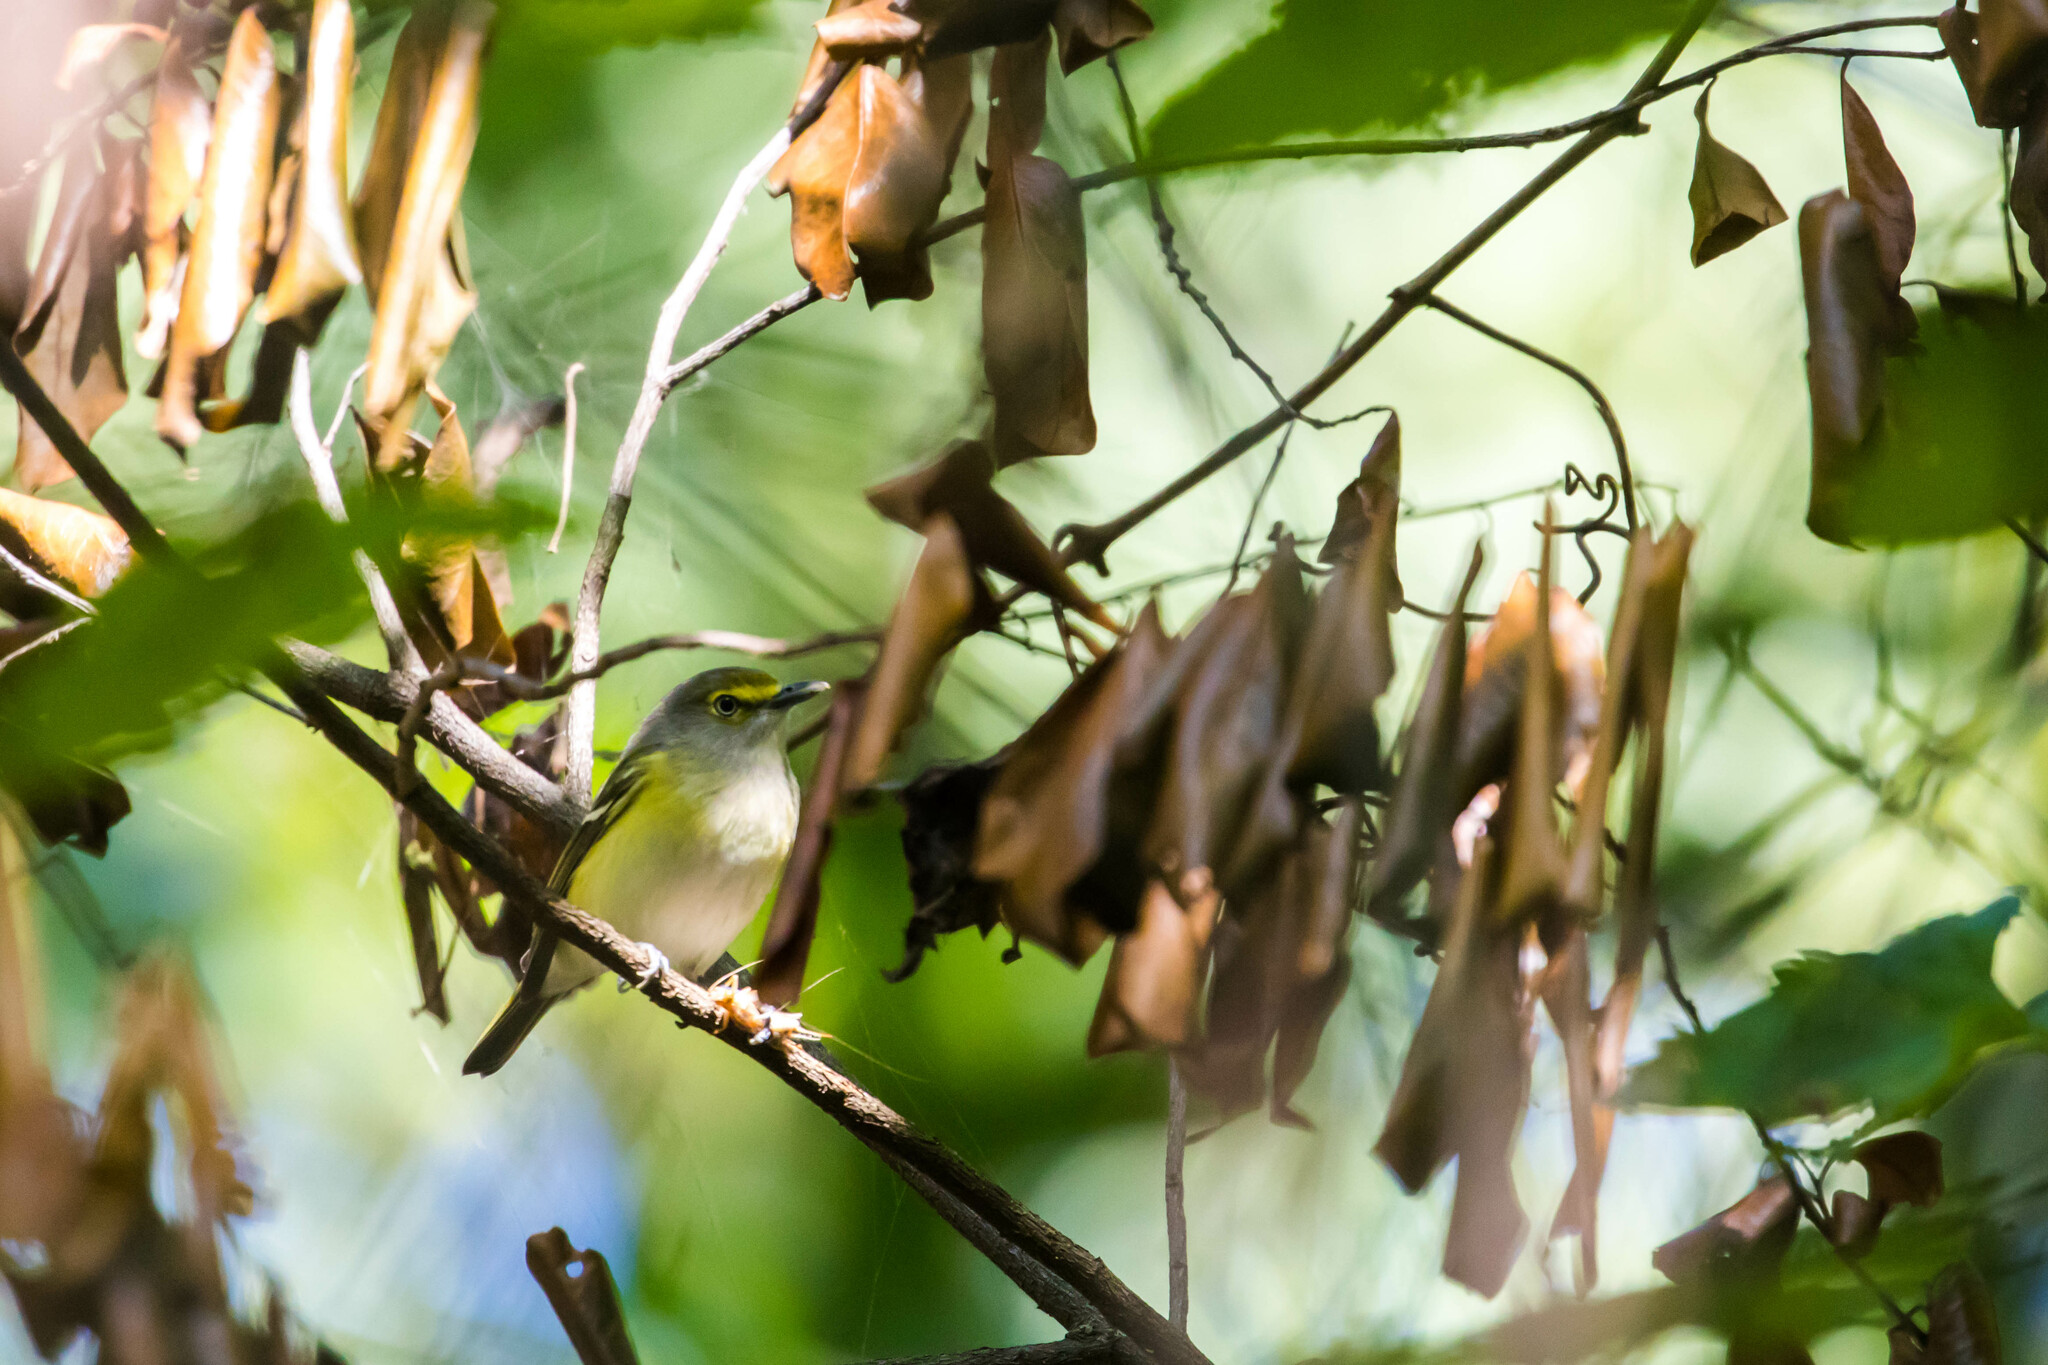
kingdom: Animalia
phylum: Chordata
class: Aves
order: Passeriformes
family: Vireonidae
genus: Vireo
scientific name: Vireo griseus
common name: White-eyed vireo
